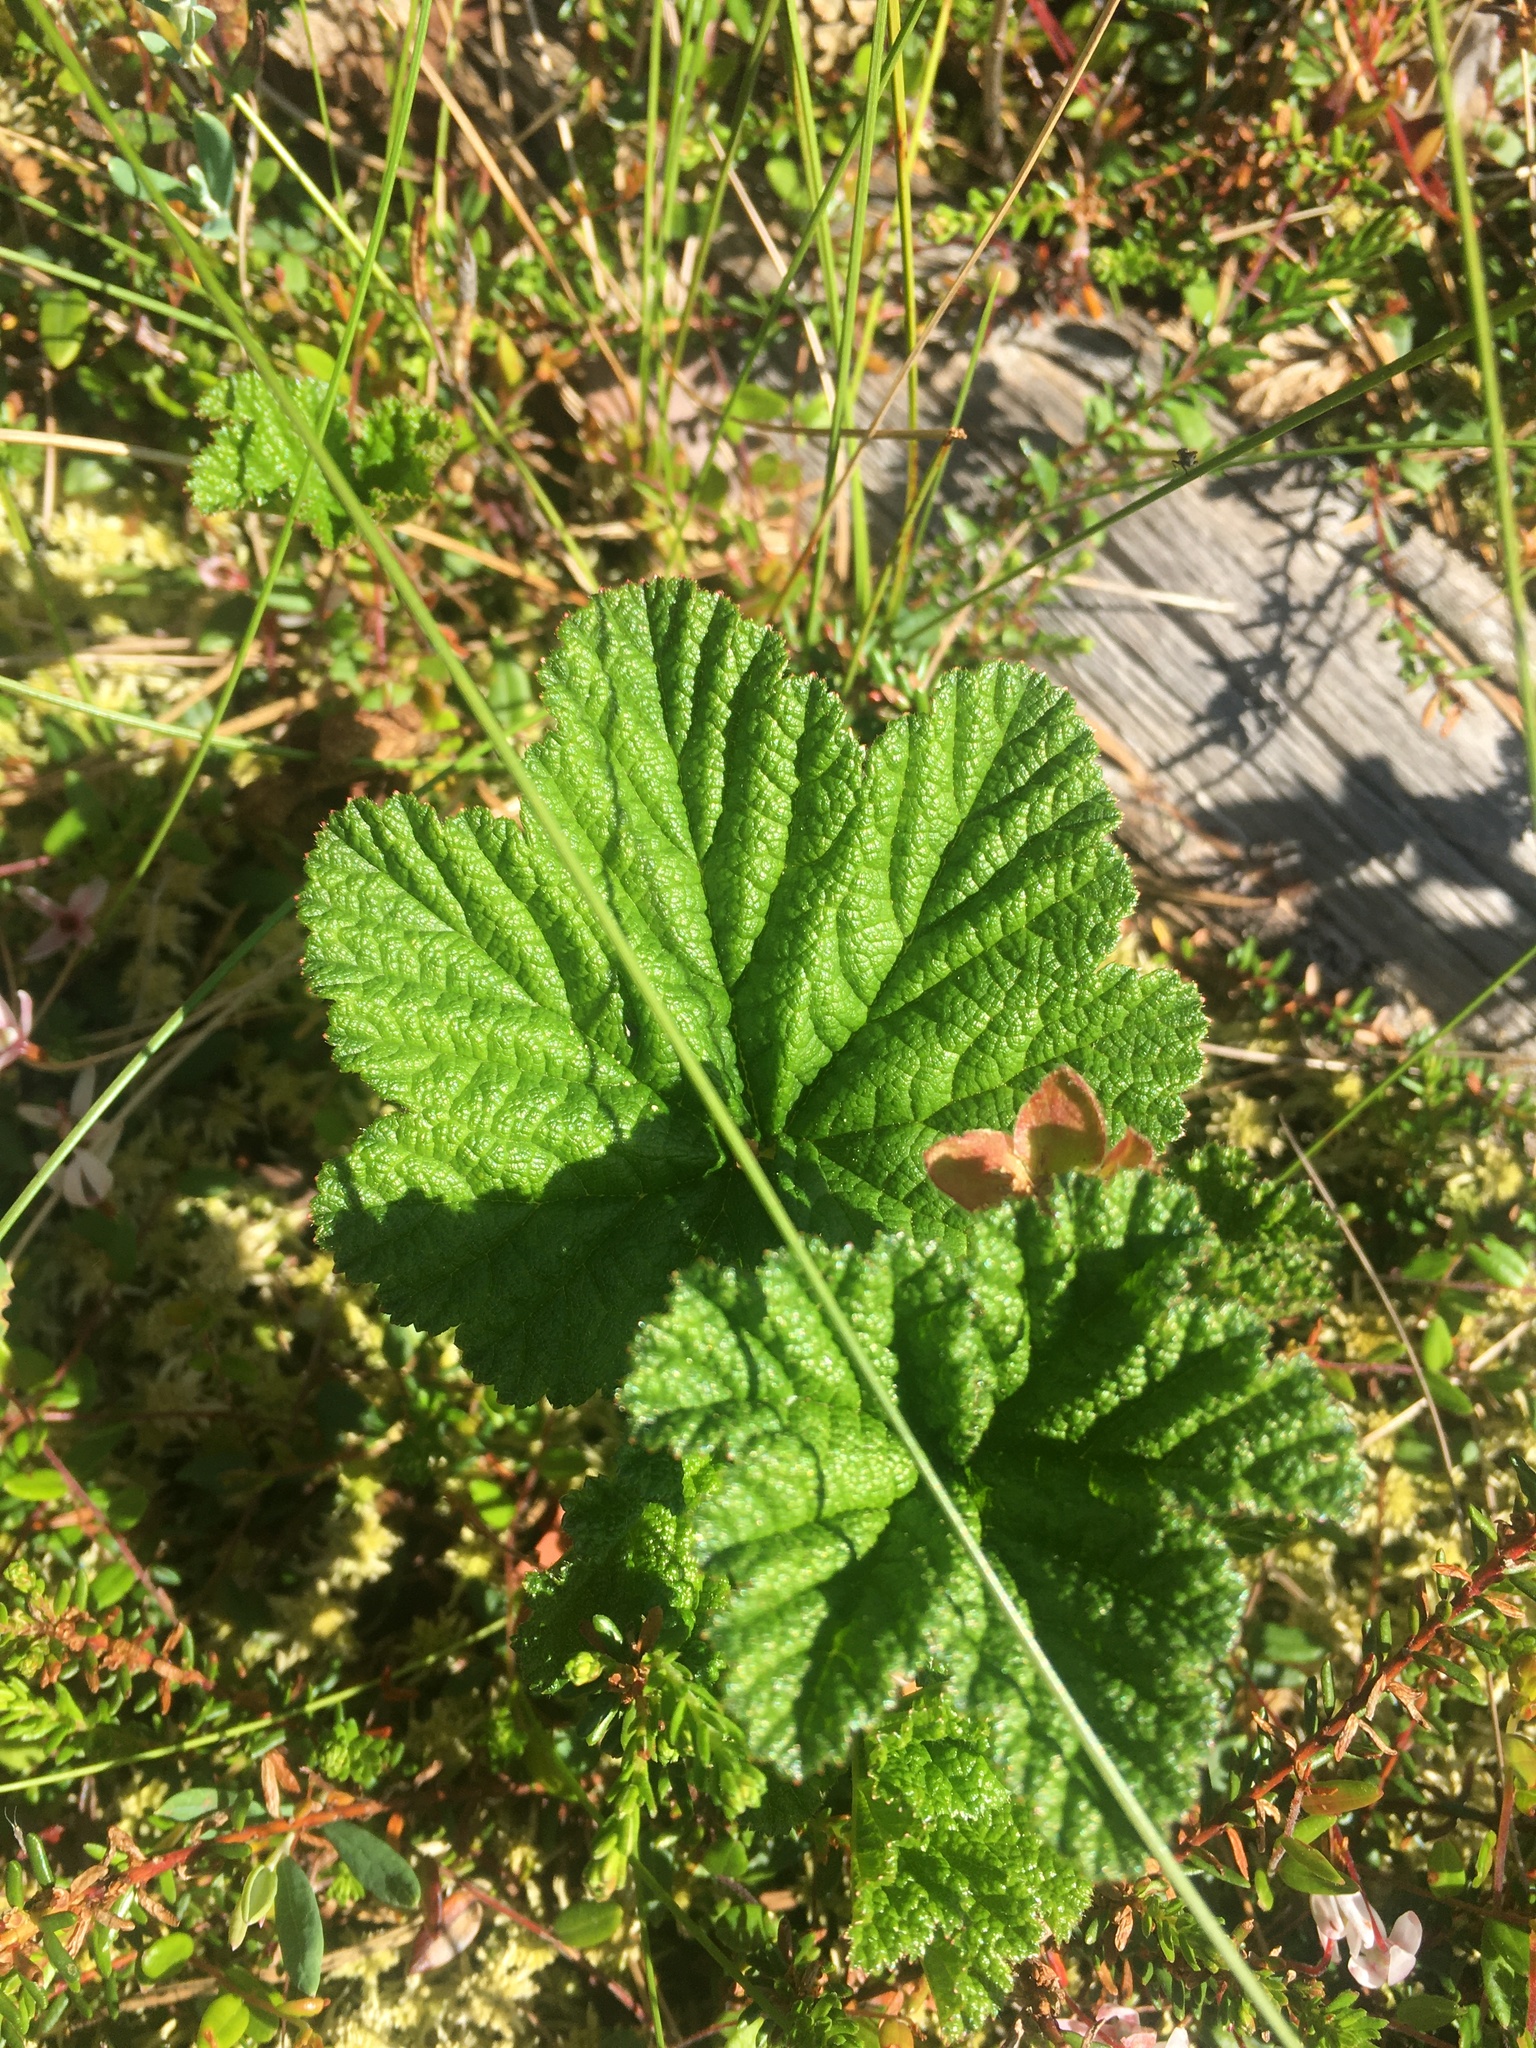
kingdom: Plantae
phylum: Tracheophyta
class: Magnoliopsida
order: Rosales
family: Rosaceae
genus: Rubus
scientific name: Rubus chamaemorus
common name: Cloudberry
